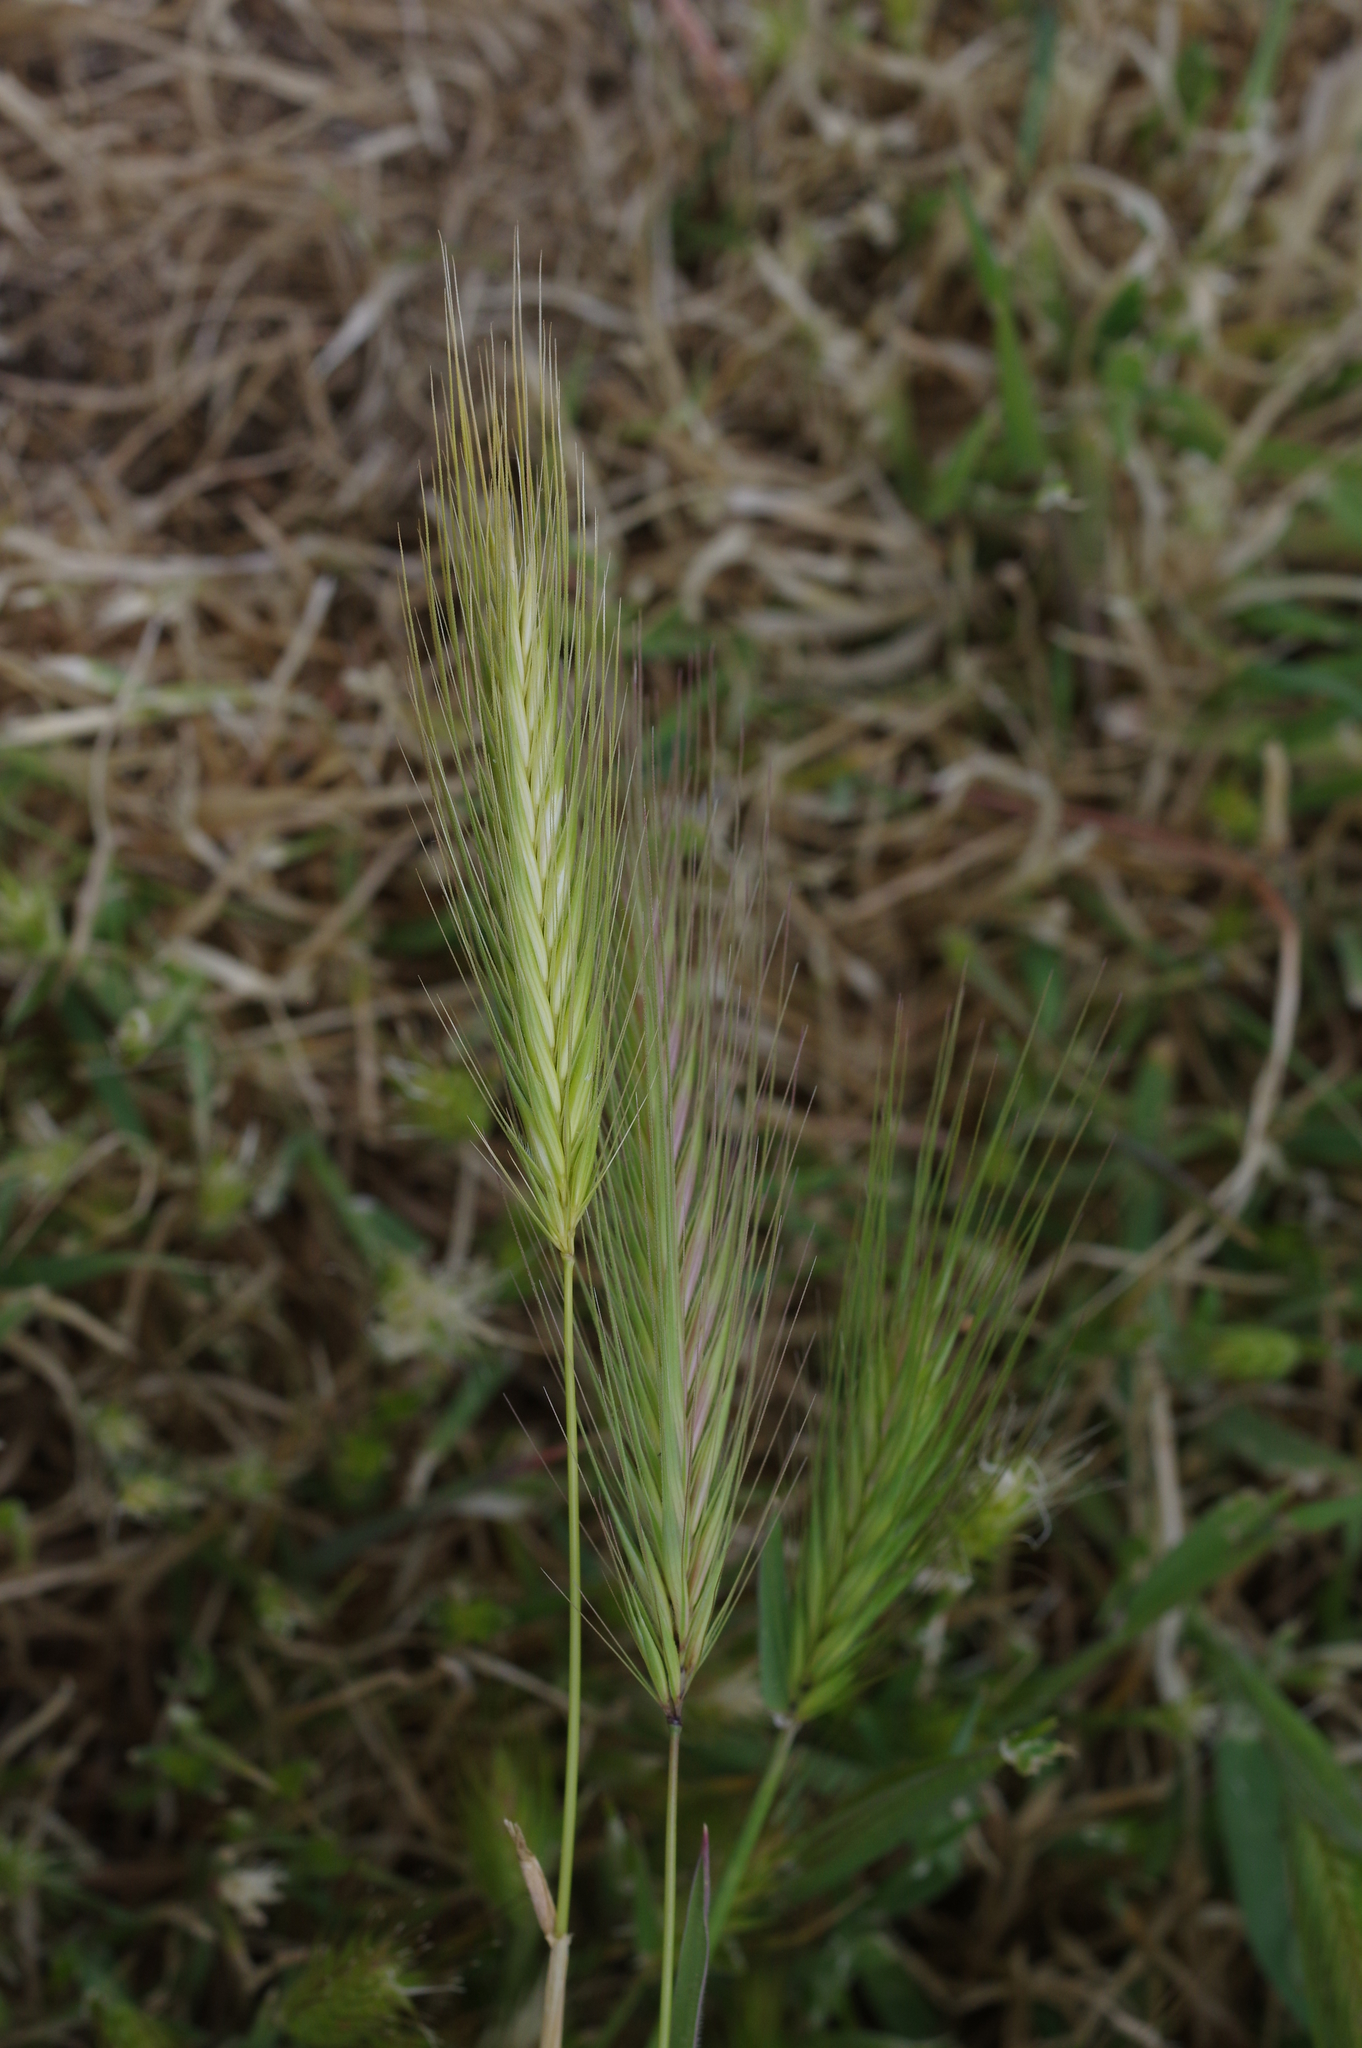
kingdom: Plantae
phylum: Tracheophyta
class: Liliopsida
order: Poales
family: Poaceae
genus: Hordeum
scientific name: Hordeum murinum
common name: Wall barley
